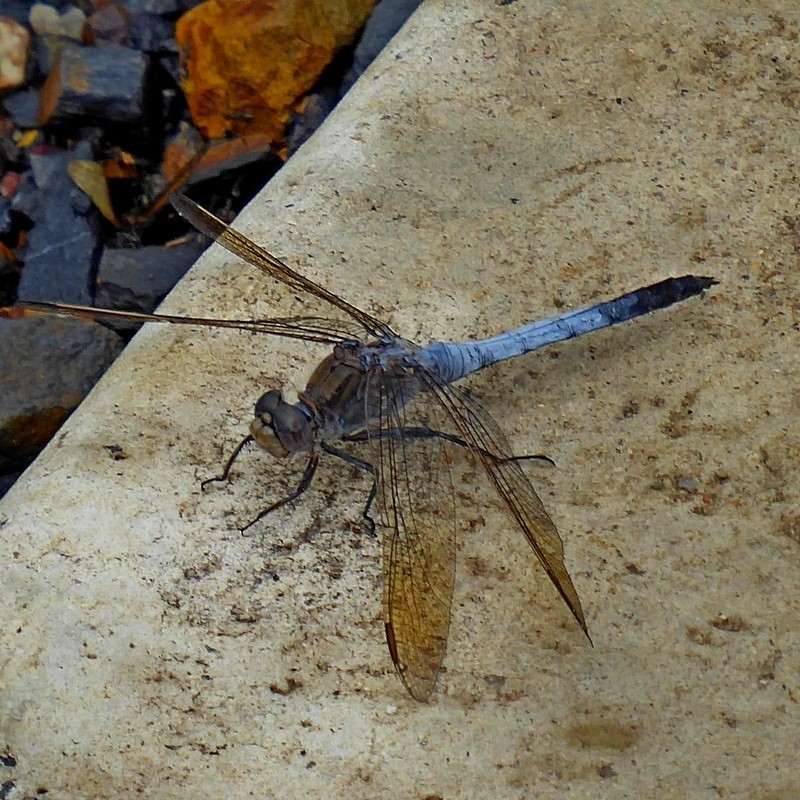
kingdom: Animalia
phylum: Arthropoda
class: Insecta
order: Odonata
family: Libellulidae
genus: Orthetrum
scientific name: Orthetrum caledonicum
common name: Blue skimmer
